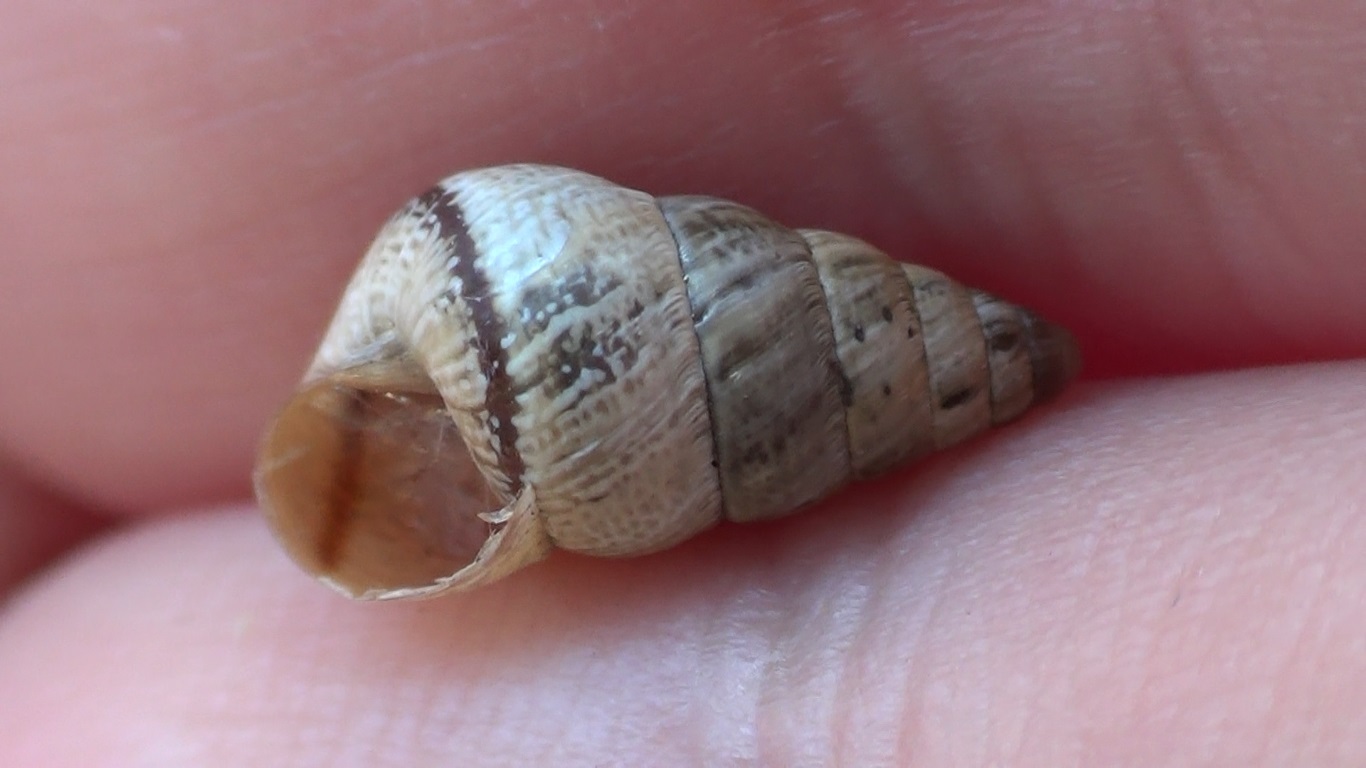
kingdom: Animalia
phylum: Mollusca
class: Gastropoda
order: Stylommatophora
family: Geomitridae
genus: Cochlicella
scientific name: Cochlicella conoidea
